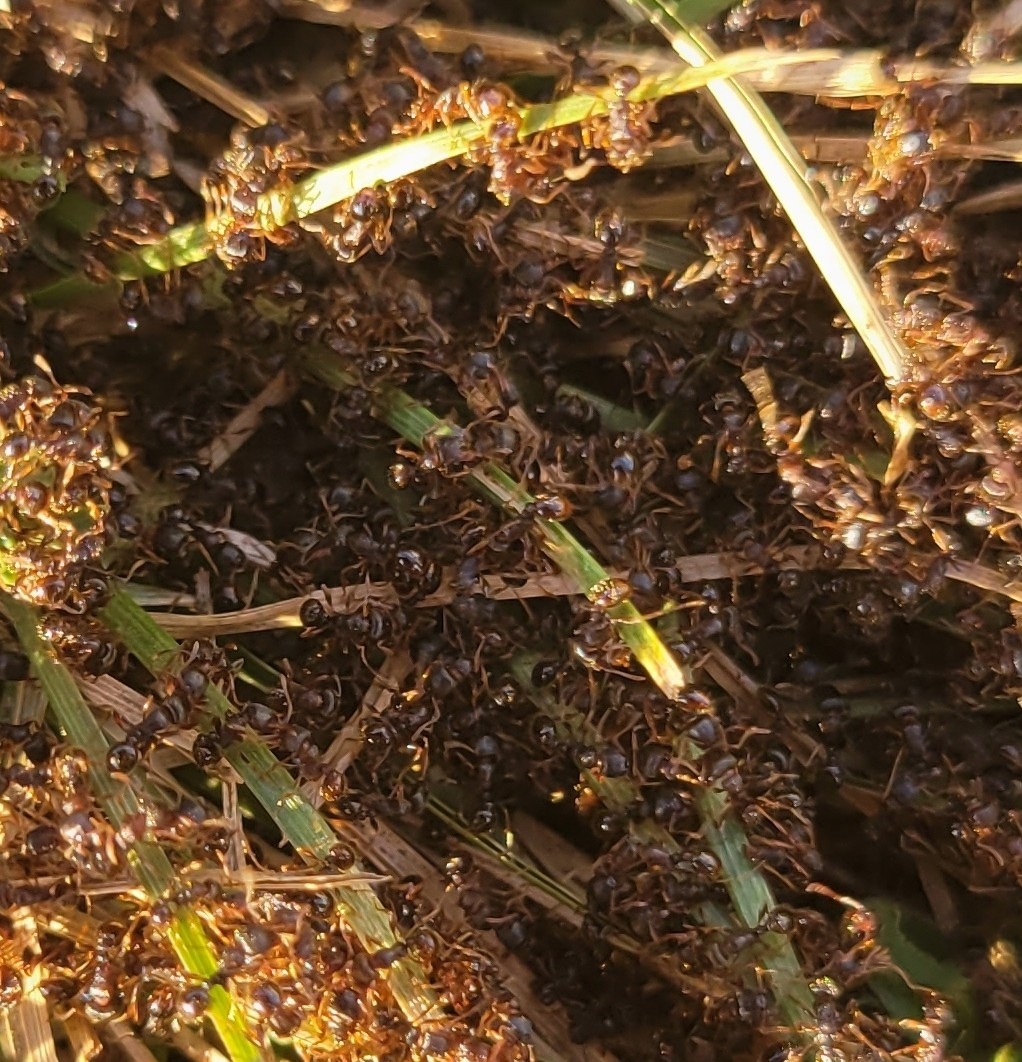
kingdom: Animalia
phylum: Arthropoda
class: Insecta
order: Hymenoptera
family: Formicidae
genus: Tetramorium
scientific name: Tetramorium immigrans
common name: Pavement ant
